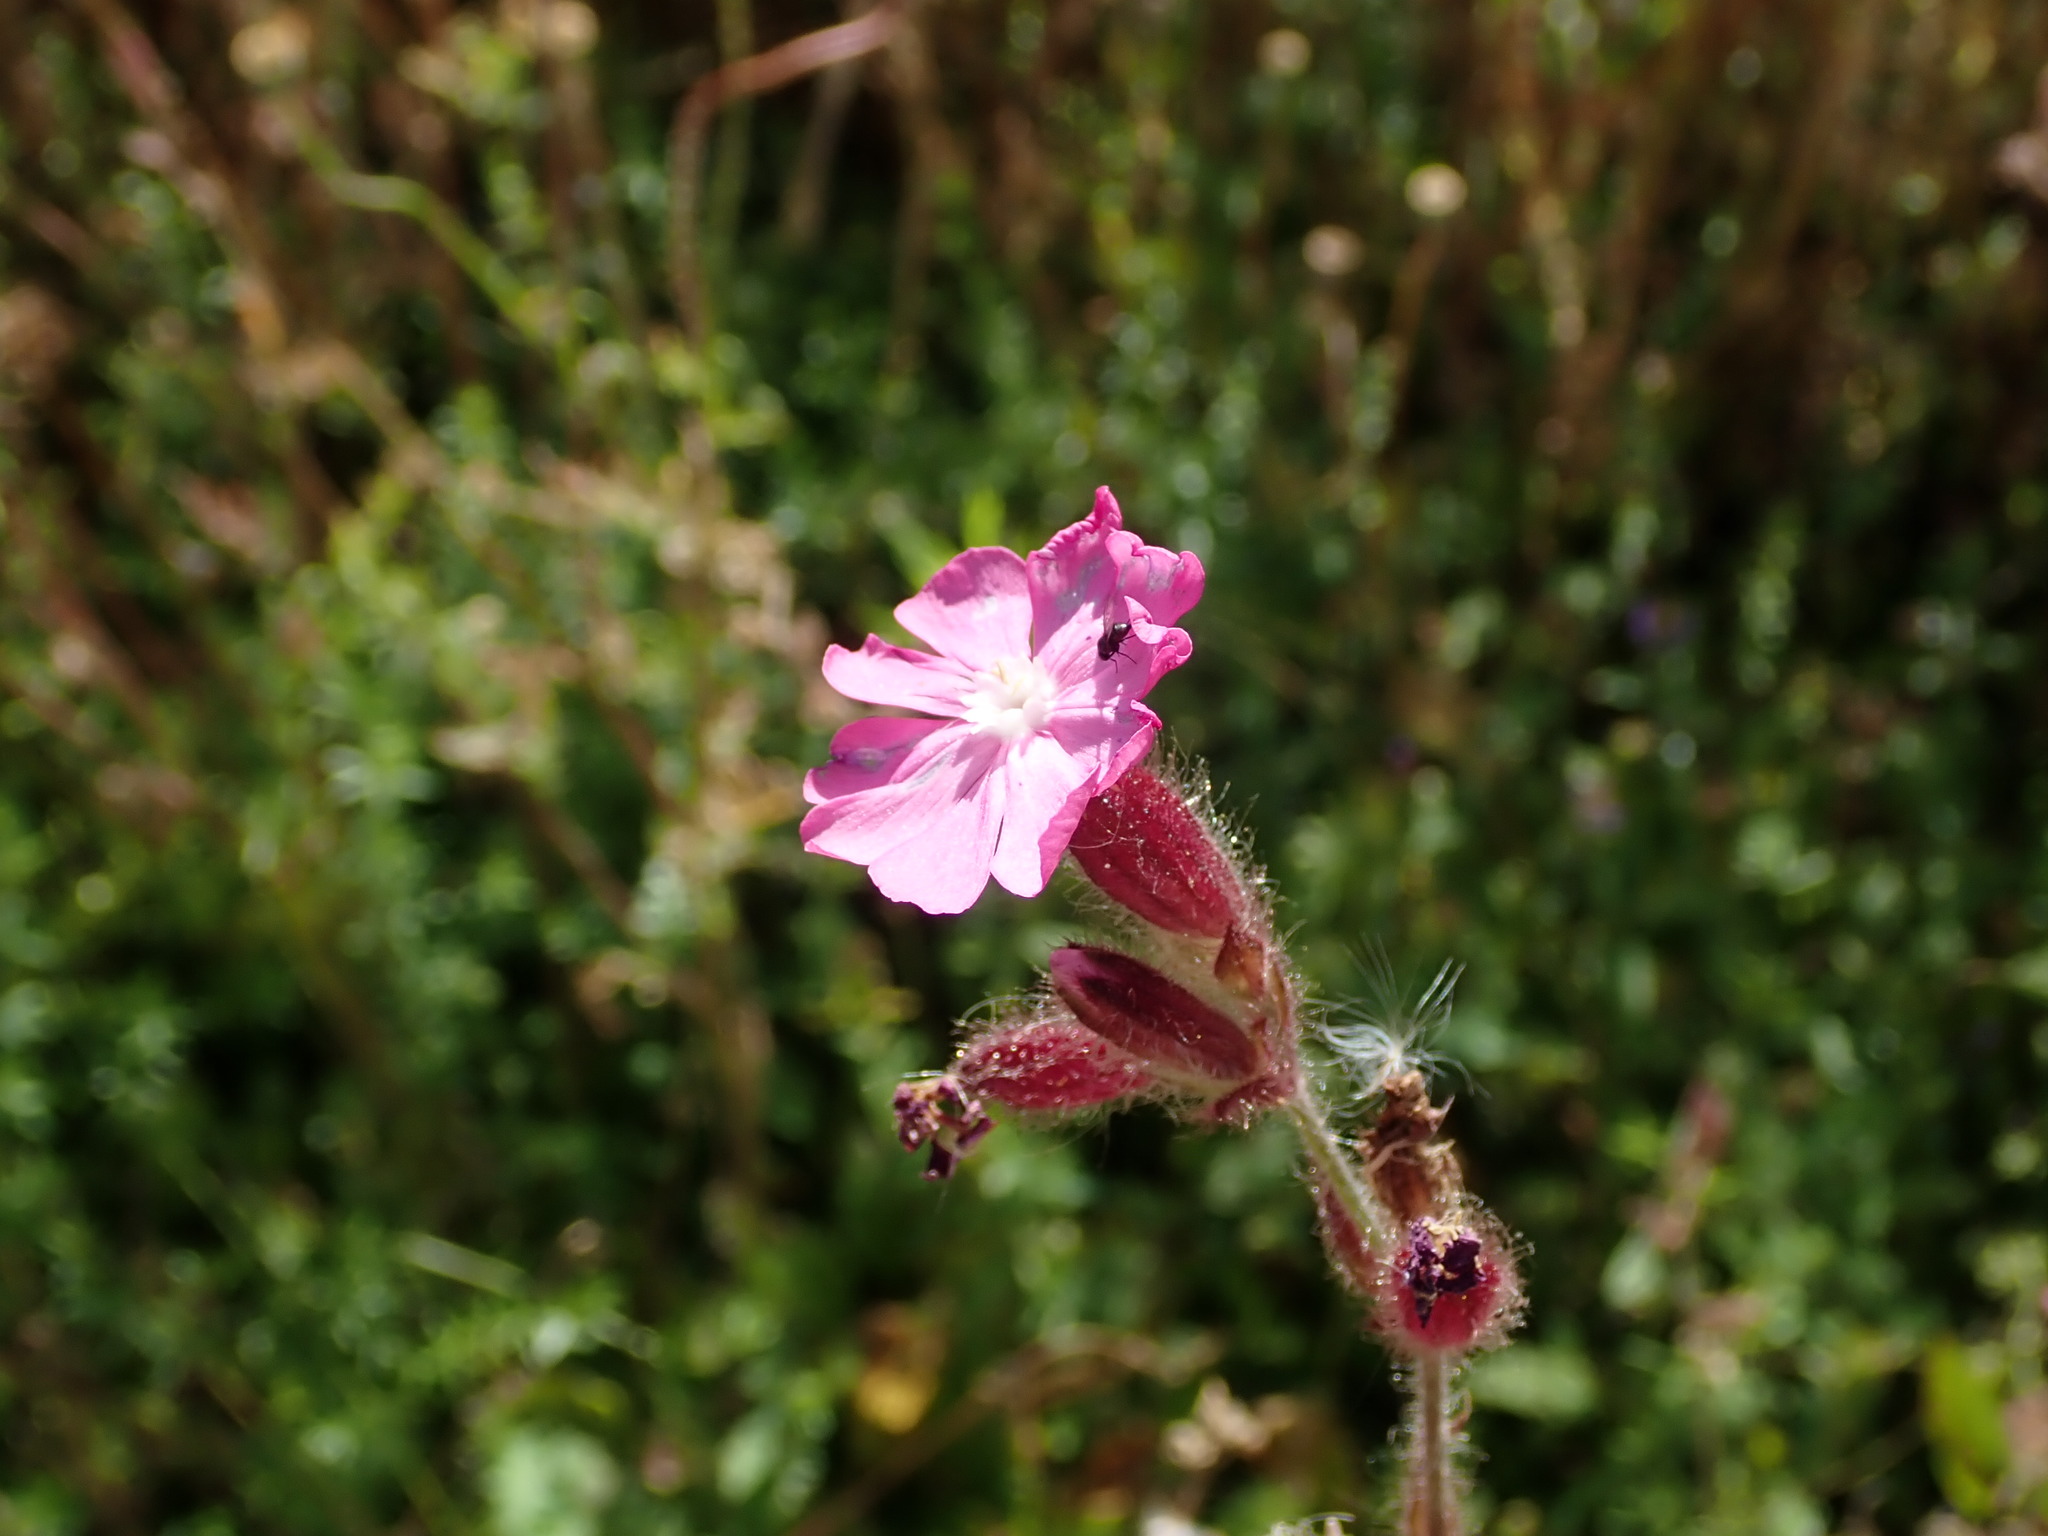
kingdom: Plantae
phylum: Tracheophyta
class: Magnoliopsida
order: Caryophyllales
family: Caryophyllaceae
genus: Silene
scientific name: Silene dioica
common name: Red campion
